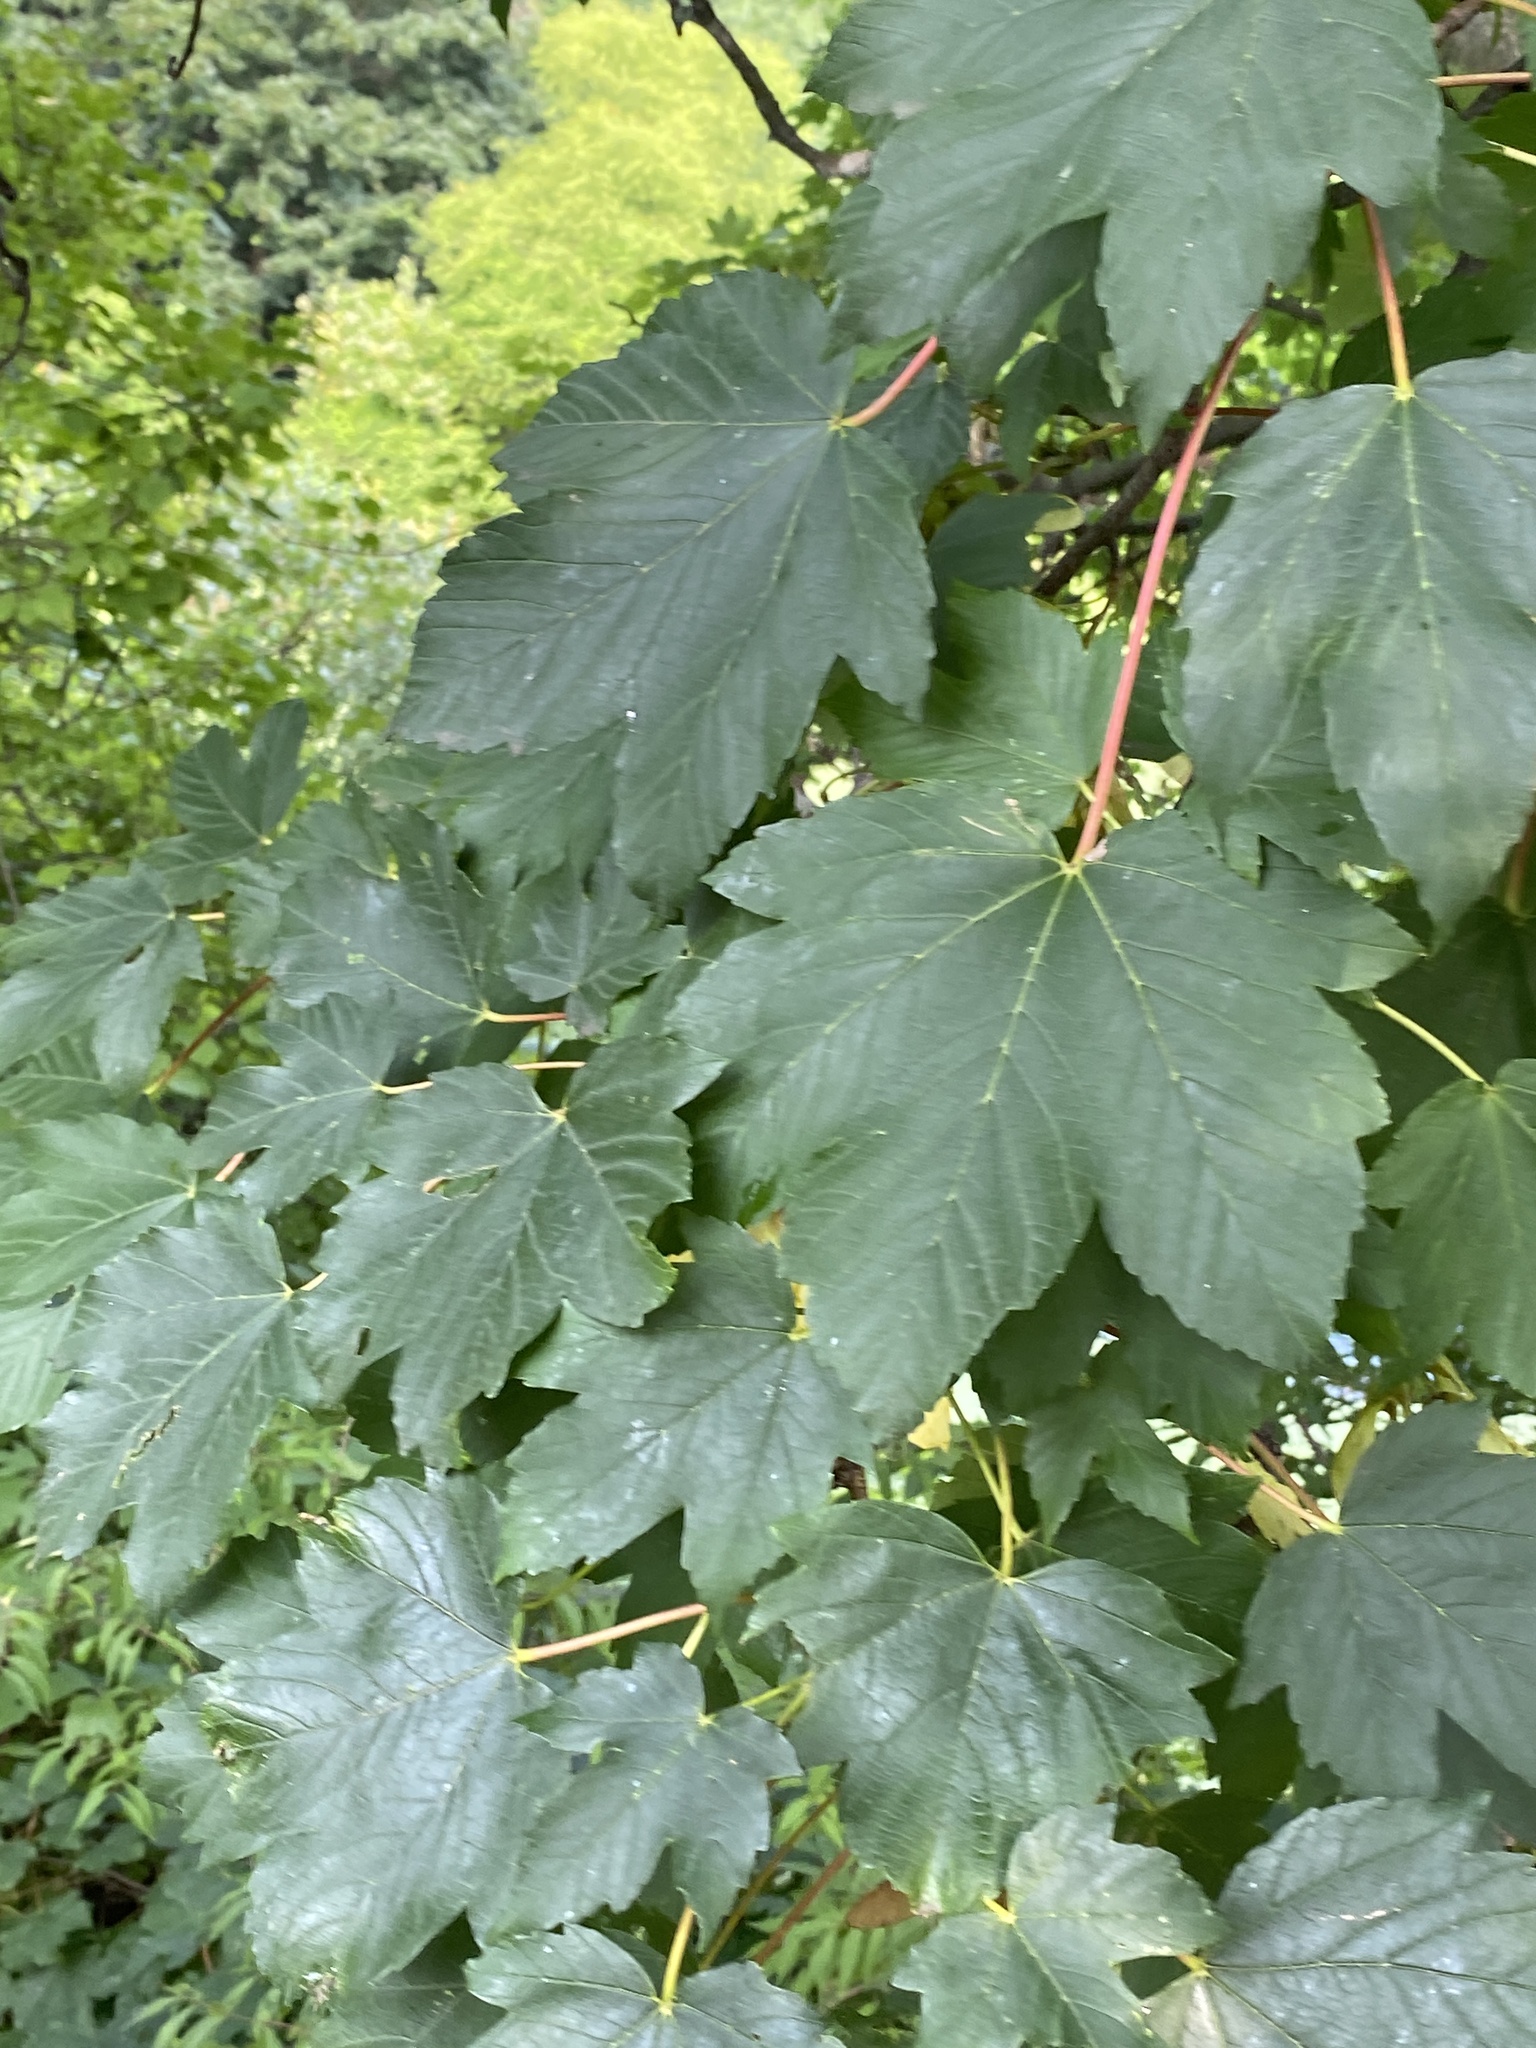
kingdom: Plantae
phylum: Tracheophyta
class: Magnoliopsida
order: Sapindales
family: Sapindaceae
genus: Acer
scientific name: Acer pseudoplatanus
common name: Sycamore
